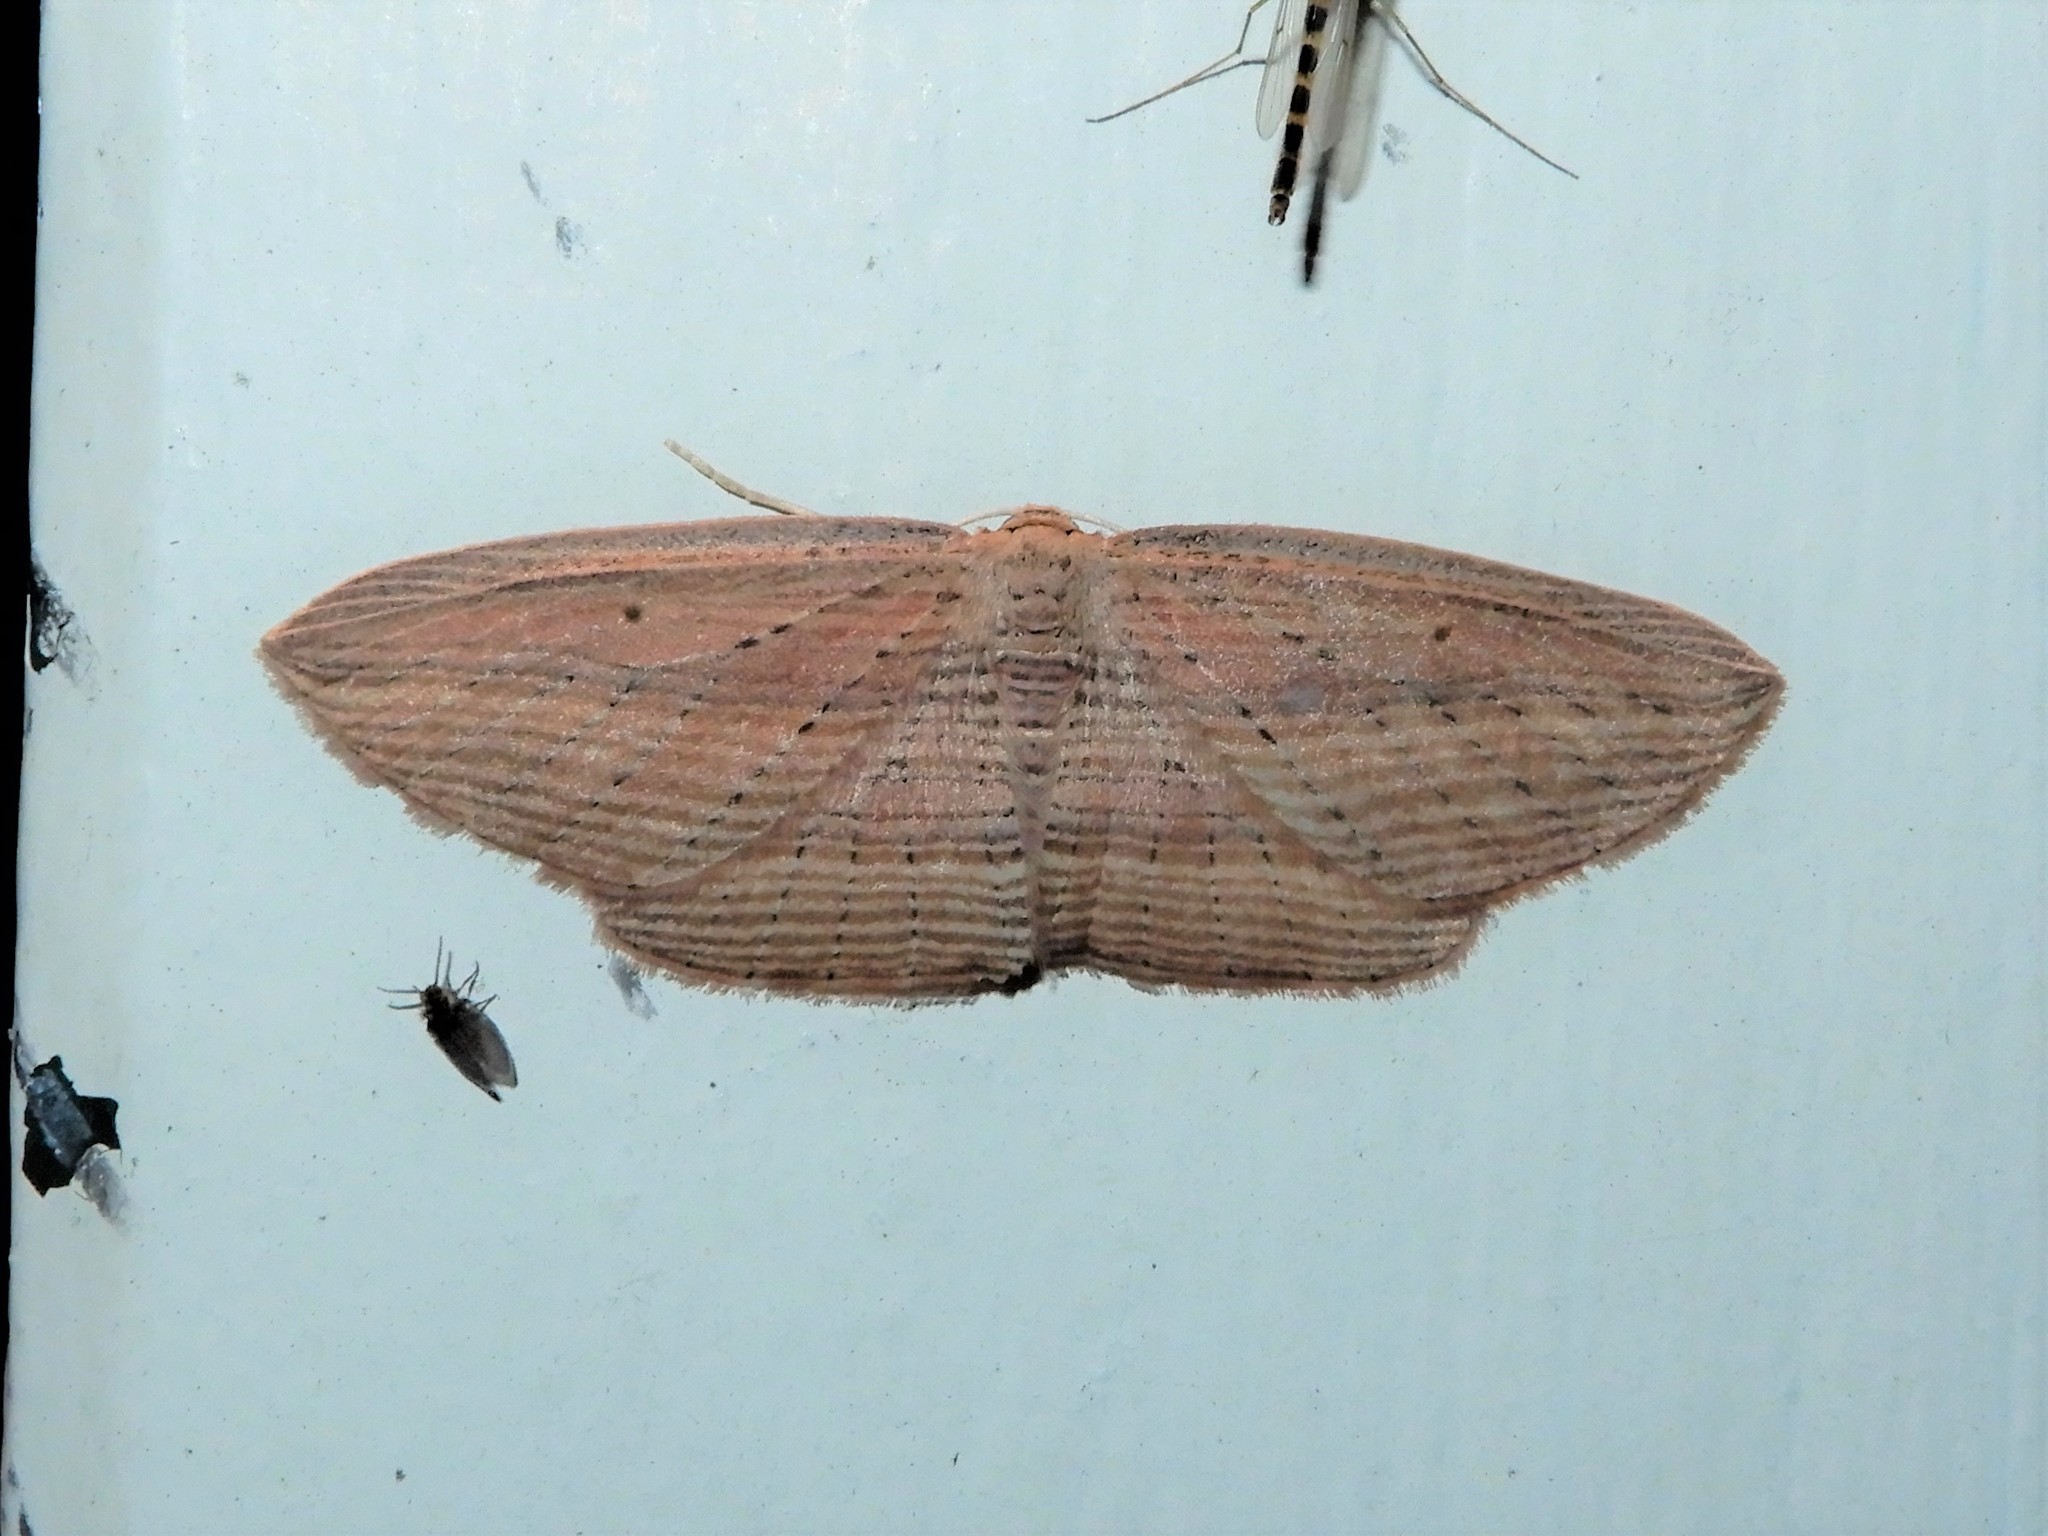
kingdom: Animalia
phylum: Arthropoda
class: Insecta
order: Lepidoptera
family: Geometridae
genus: Epiphryne
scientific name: Epiphryne verriculata
